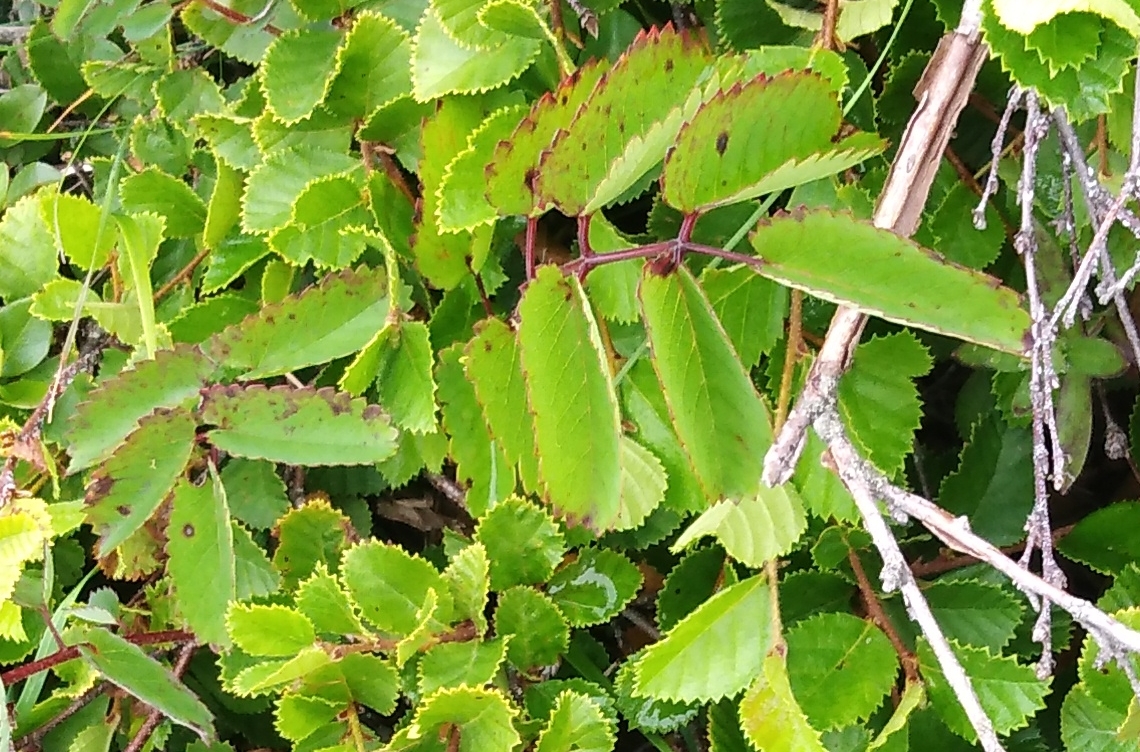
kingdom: Plantae
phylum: Tracheophyta
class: Magnoliopsida
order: Rosales
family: Rosaceae
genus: Sanguisorba
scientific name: Sanguisorba officinalis
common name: Great burnet
